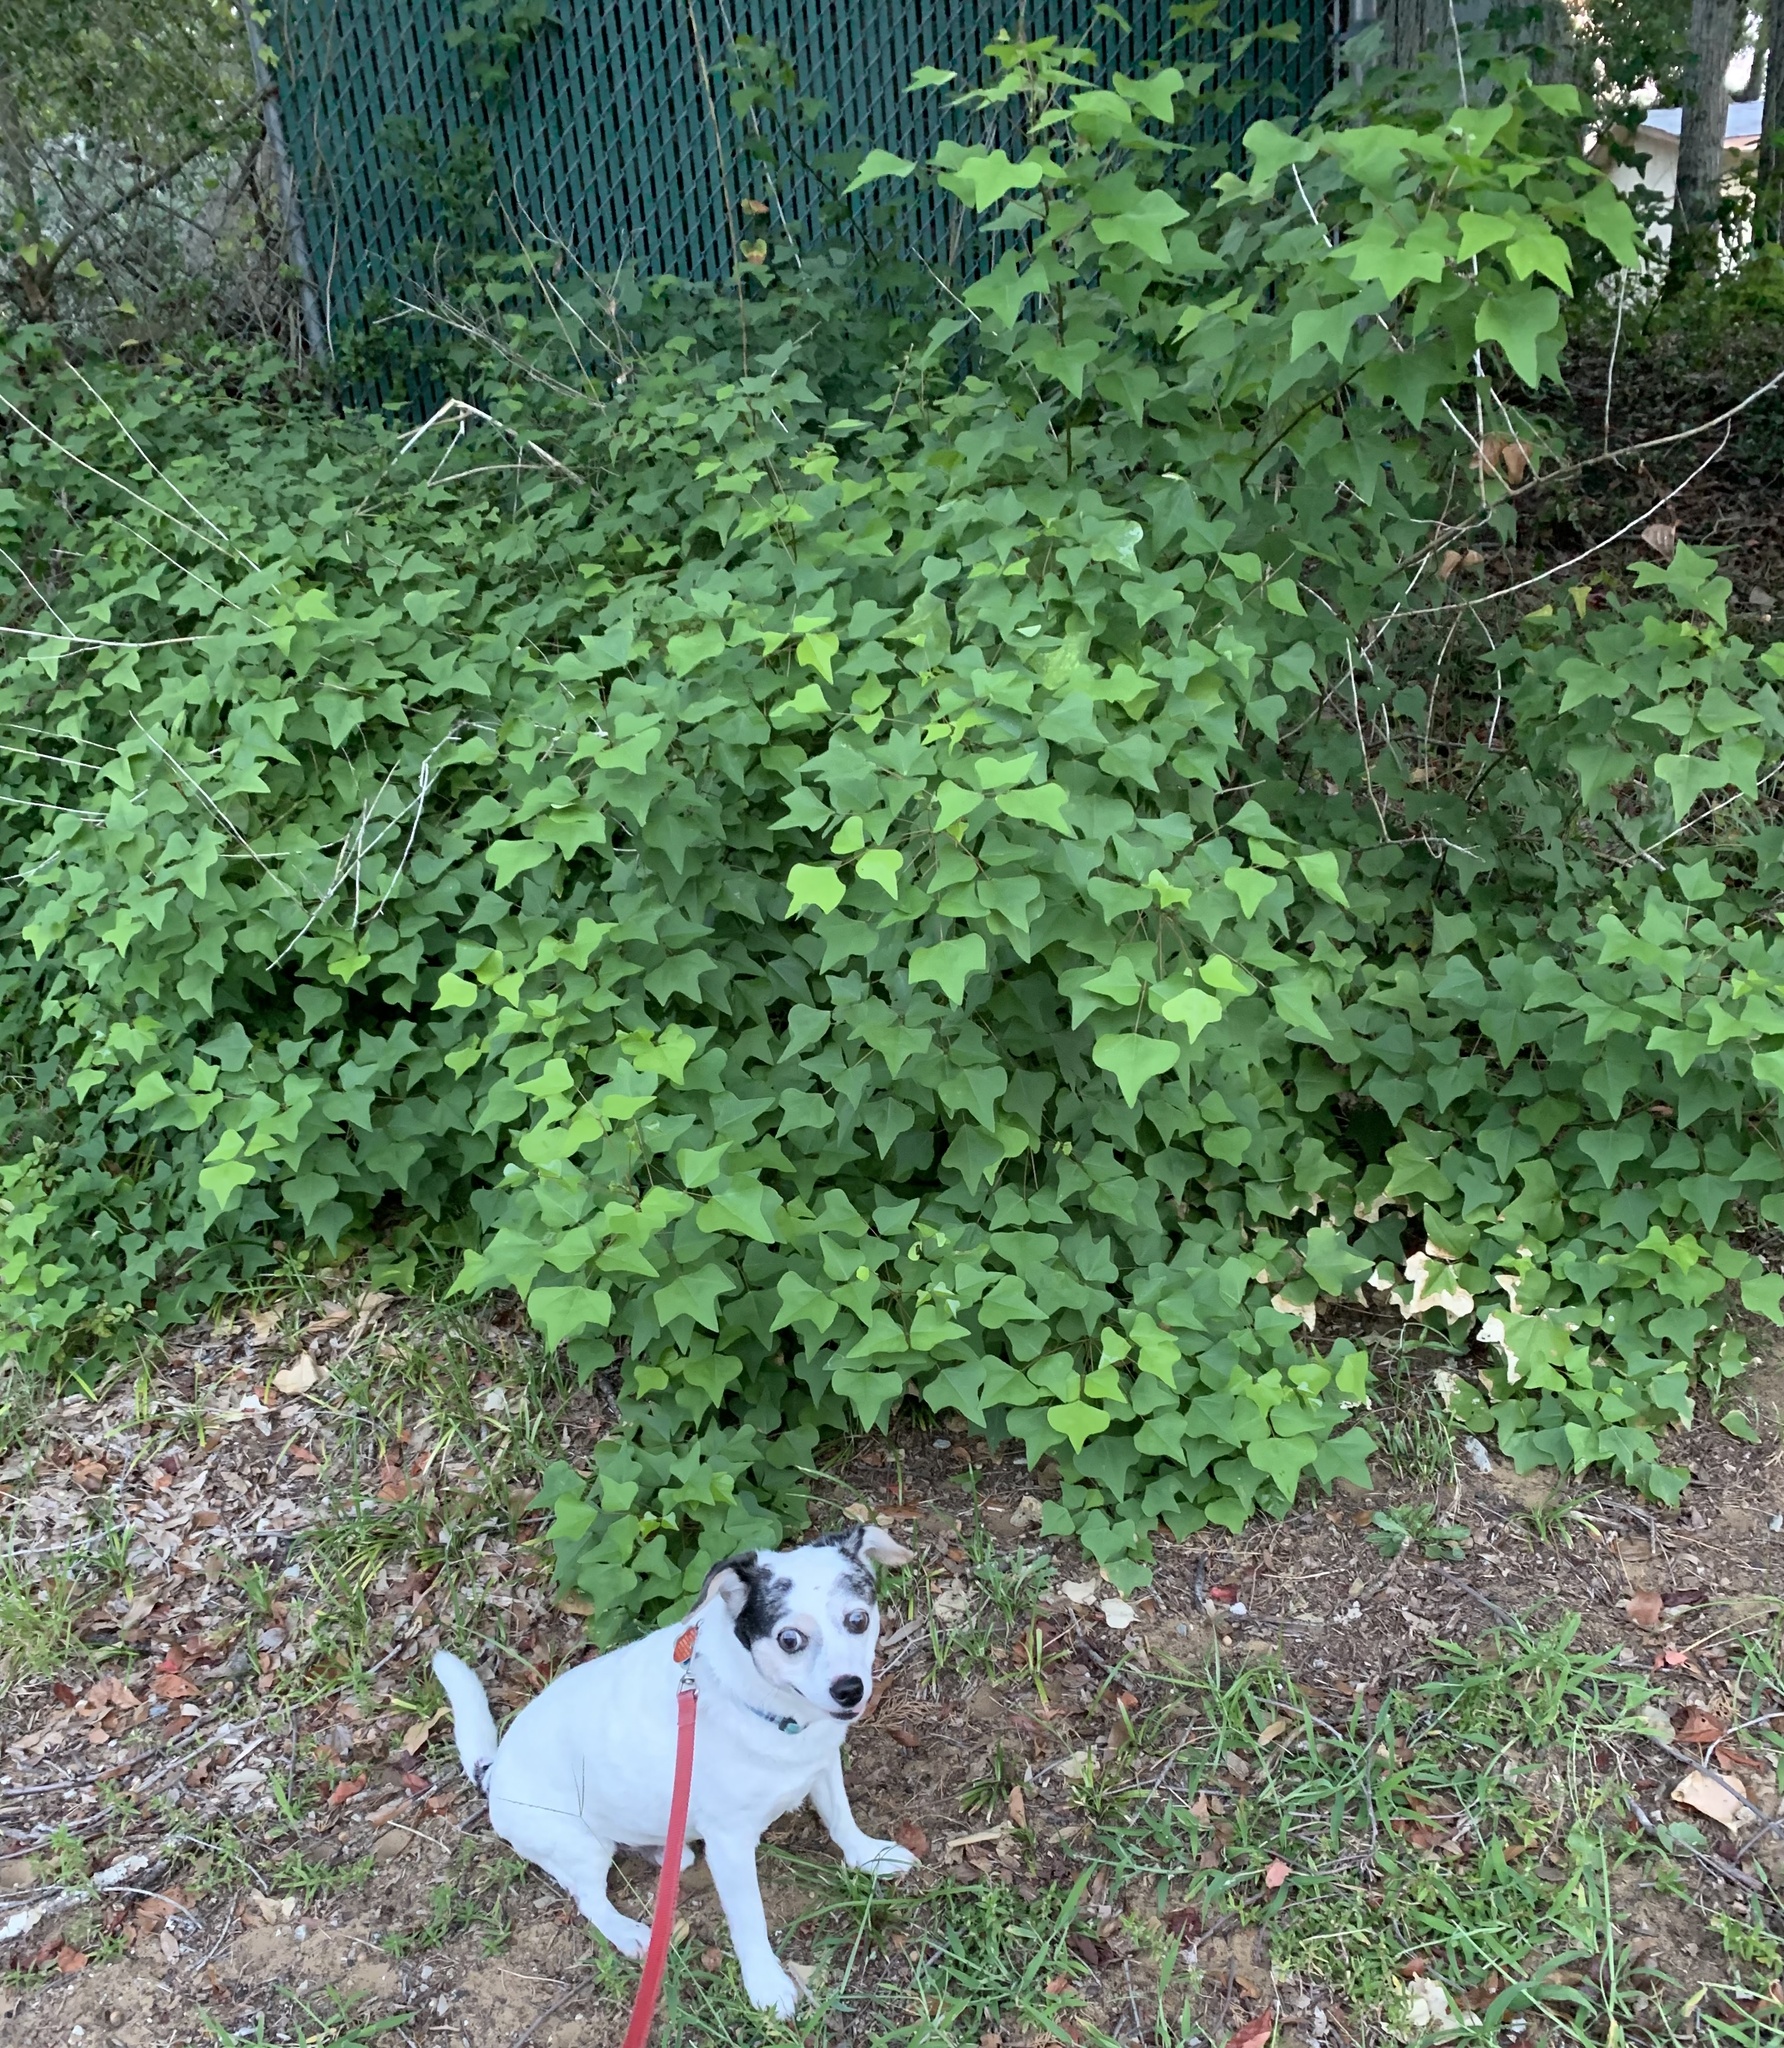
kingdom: Plantae
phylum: Tracheophyta
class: Magnoliopsida
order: Fabales
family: Fabaceae
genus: Erythrina
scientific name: Erythrina herbacea
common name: Coral-bean
